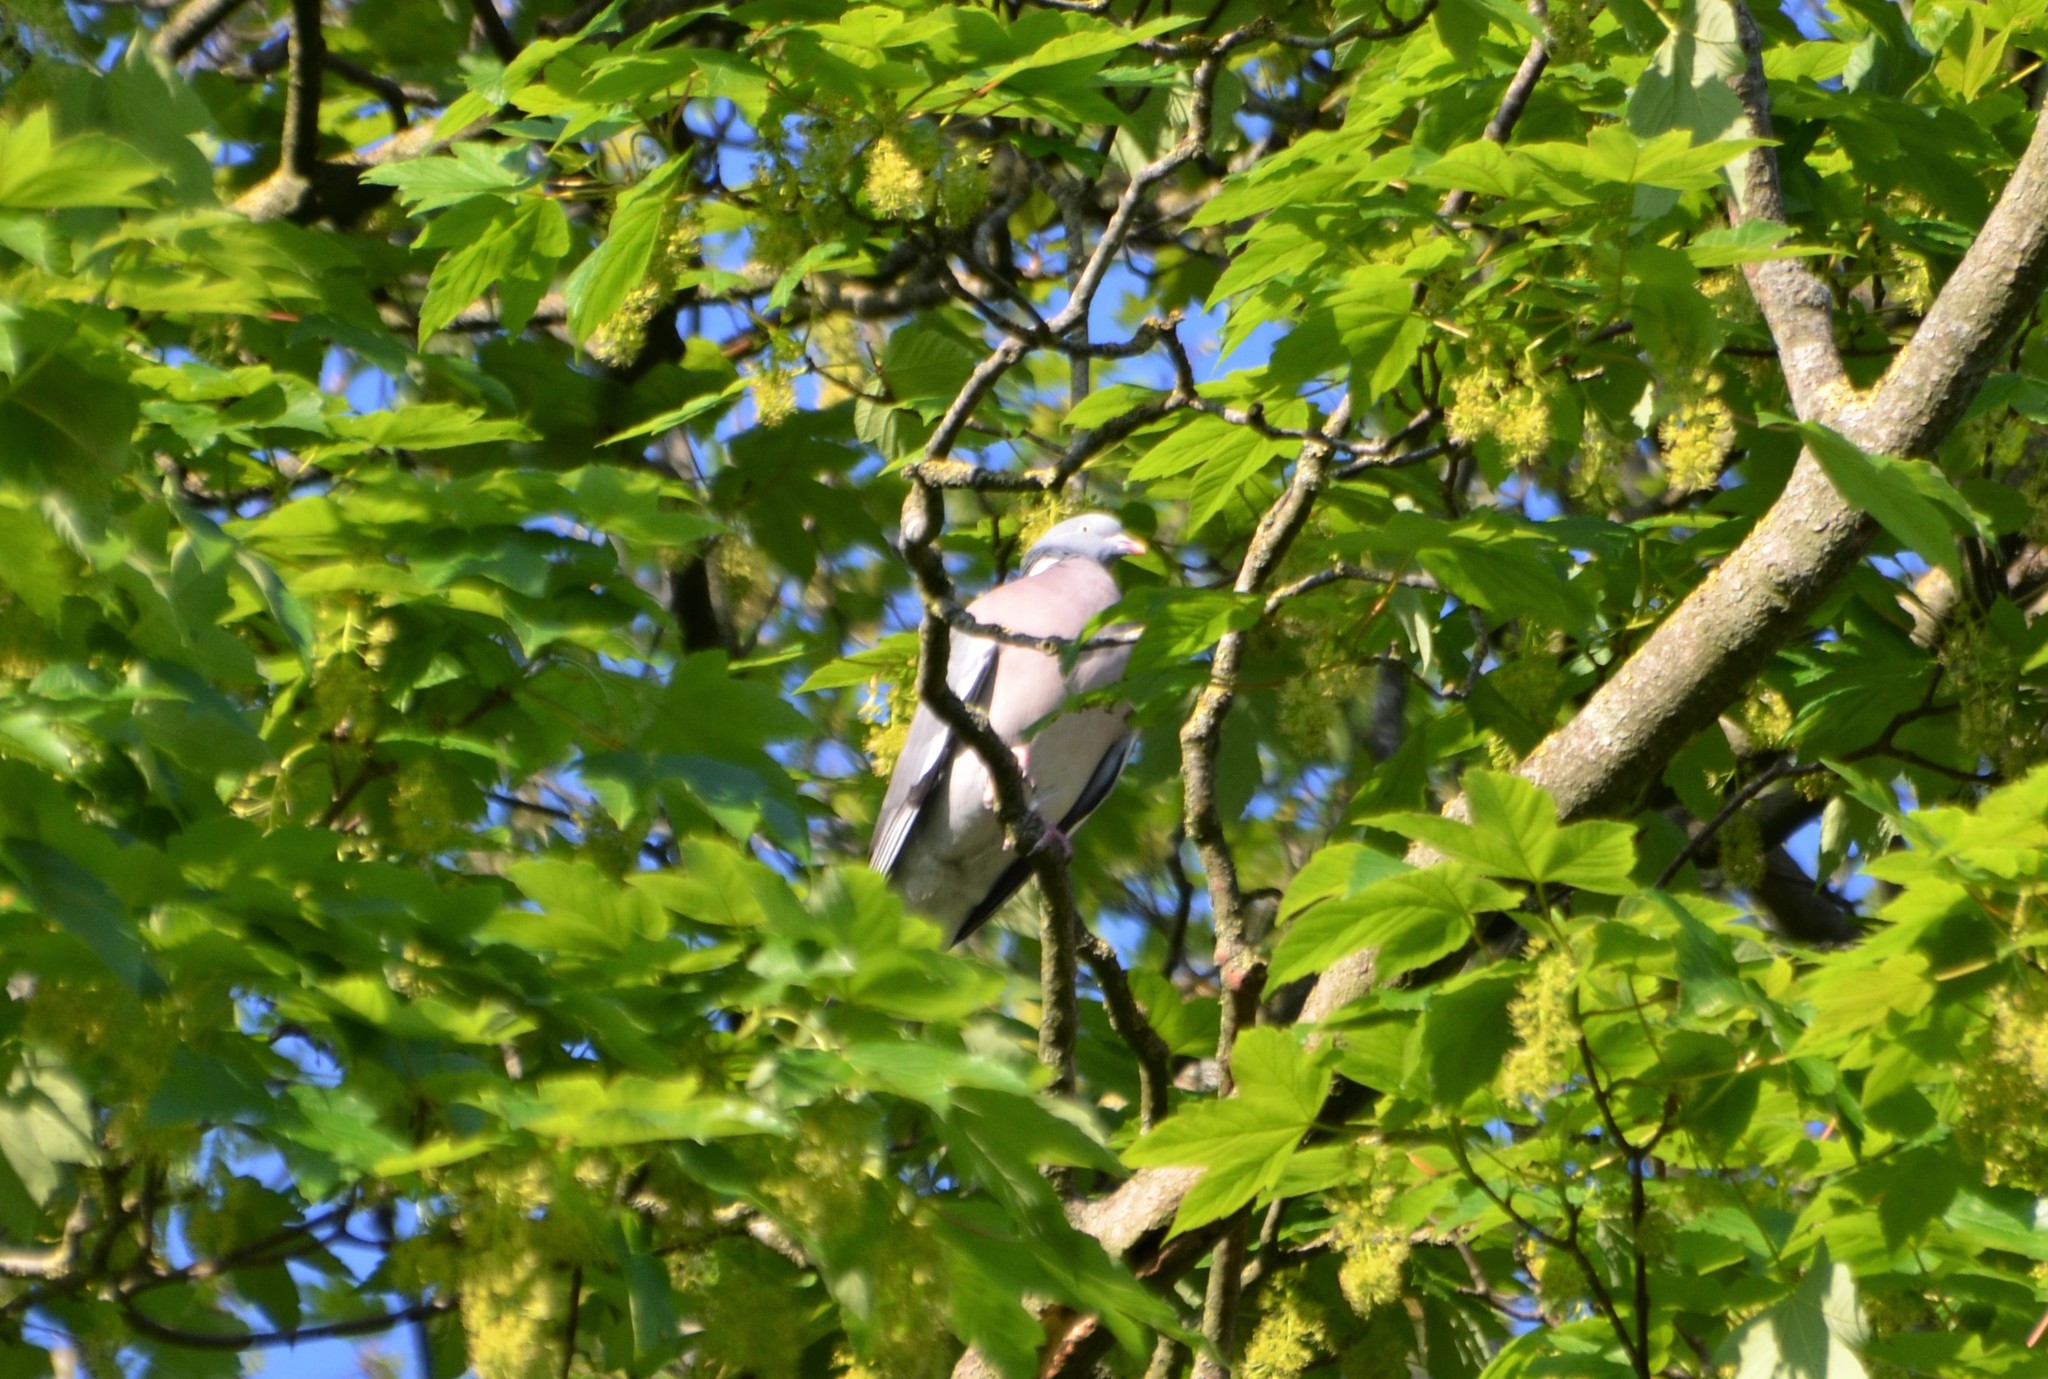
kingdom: Animalia
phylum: Chordata
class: Aves
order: Columbiformes
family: Columbidae
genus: Columba
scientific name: Columba palumbus
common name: Common wood pigeon
